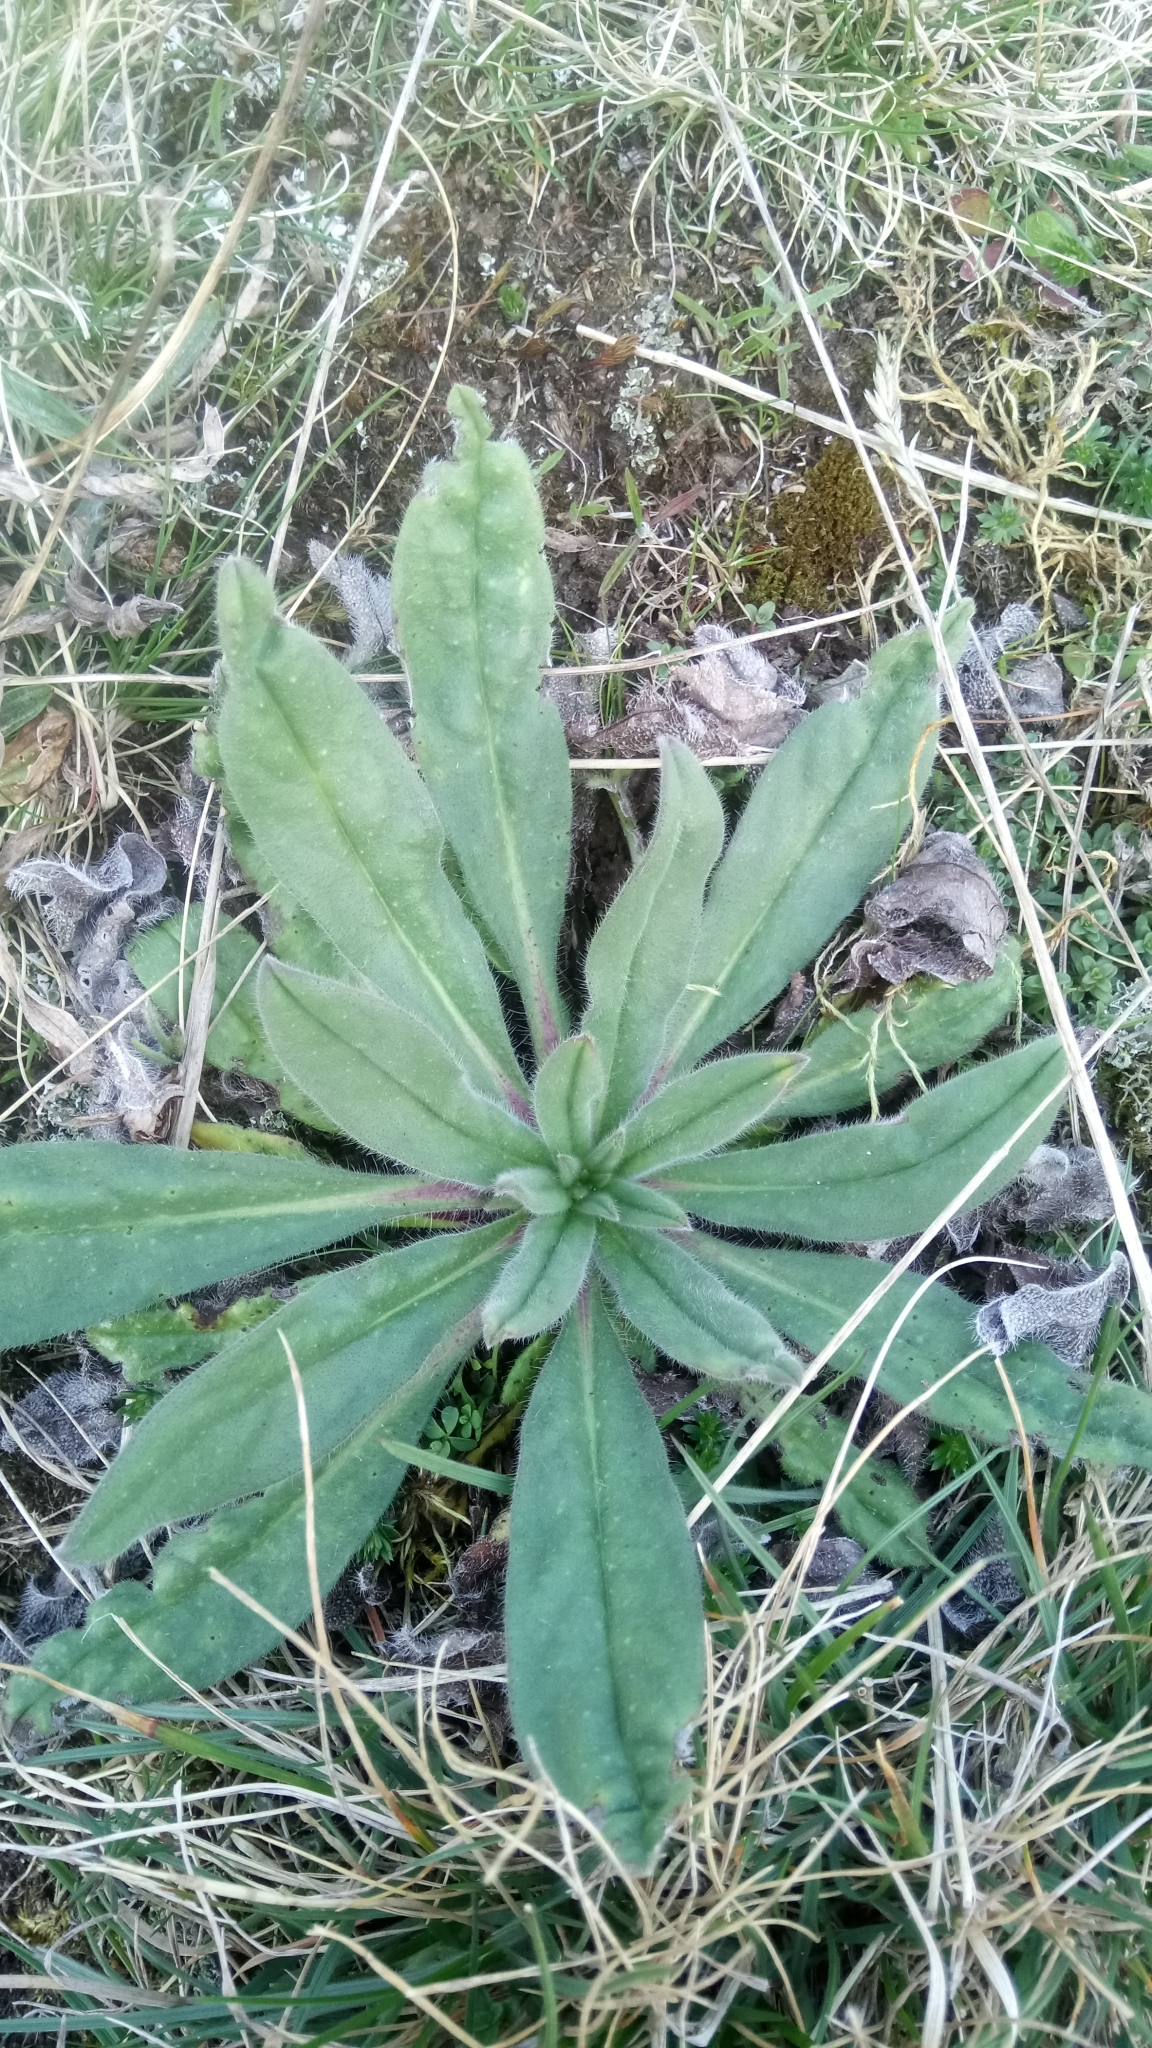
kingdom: Plantae
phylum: Tracheophyta
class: Magnoliopsida
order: Boraginales
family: Boraginaceae
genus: Echium
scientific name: Echium vulgare
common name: Common viper's bugloss
